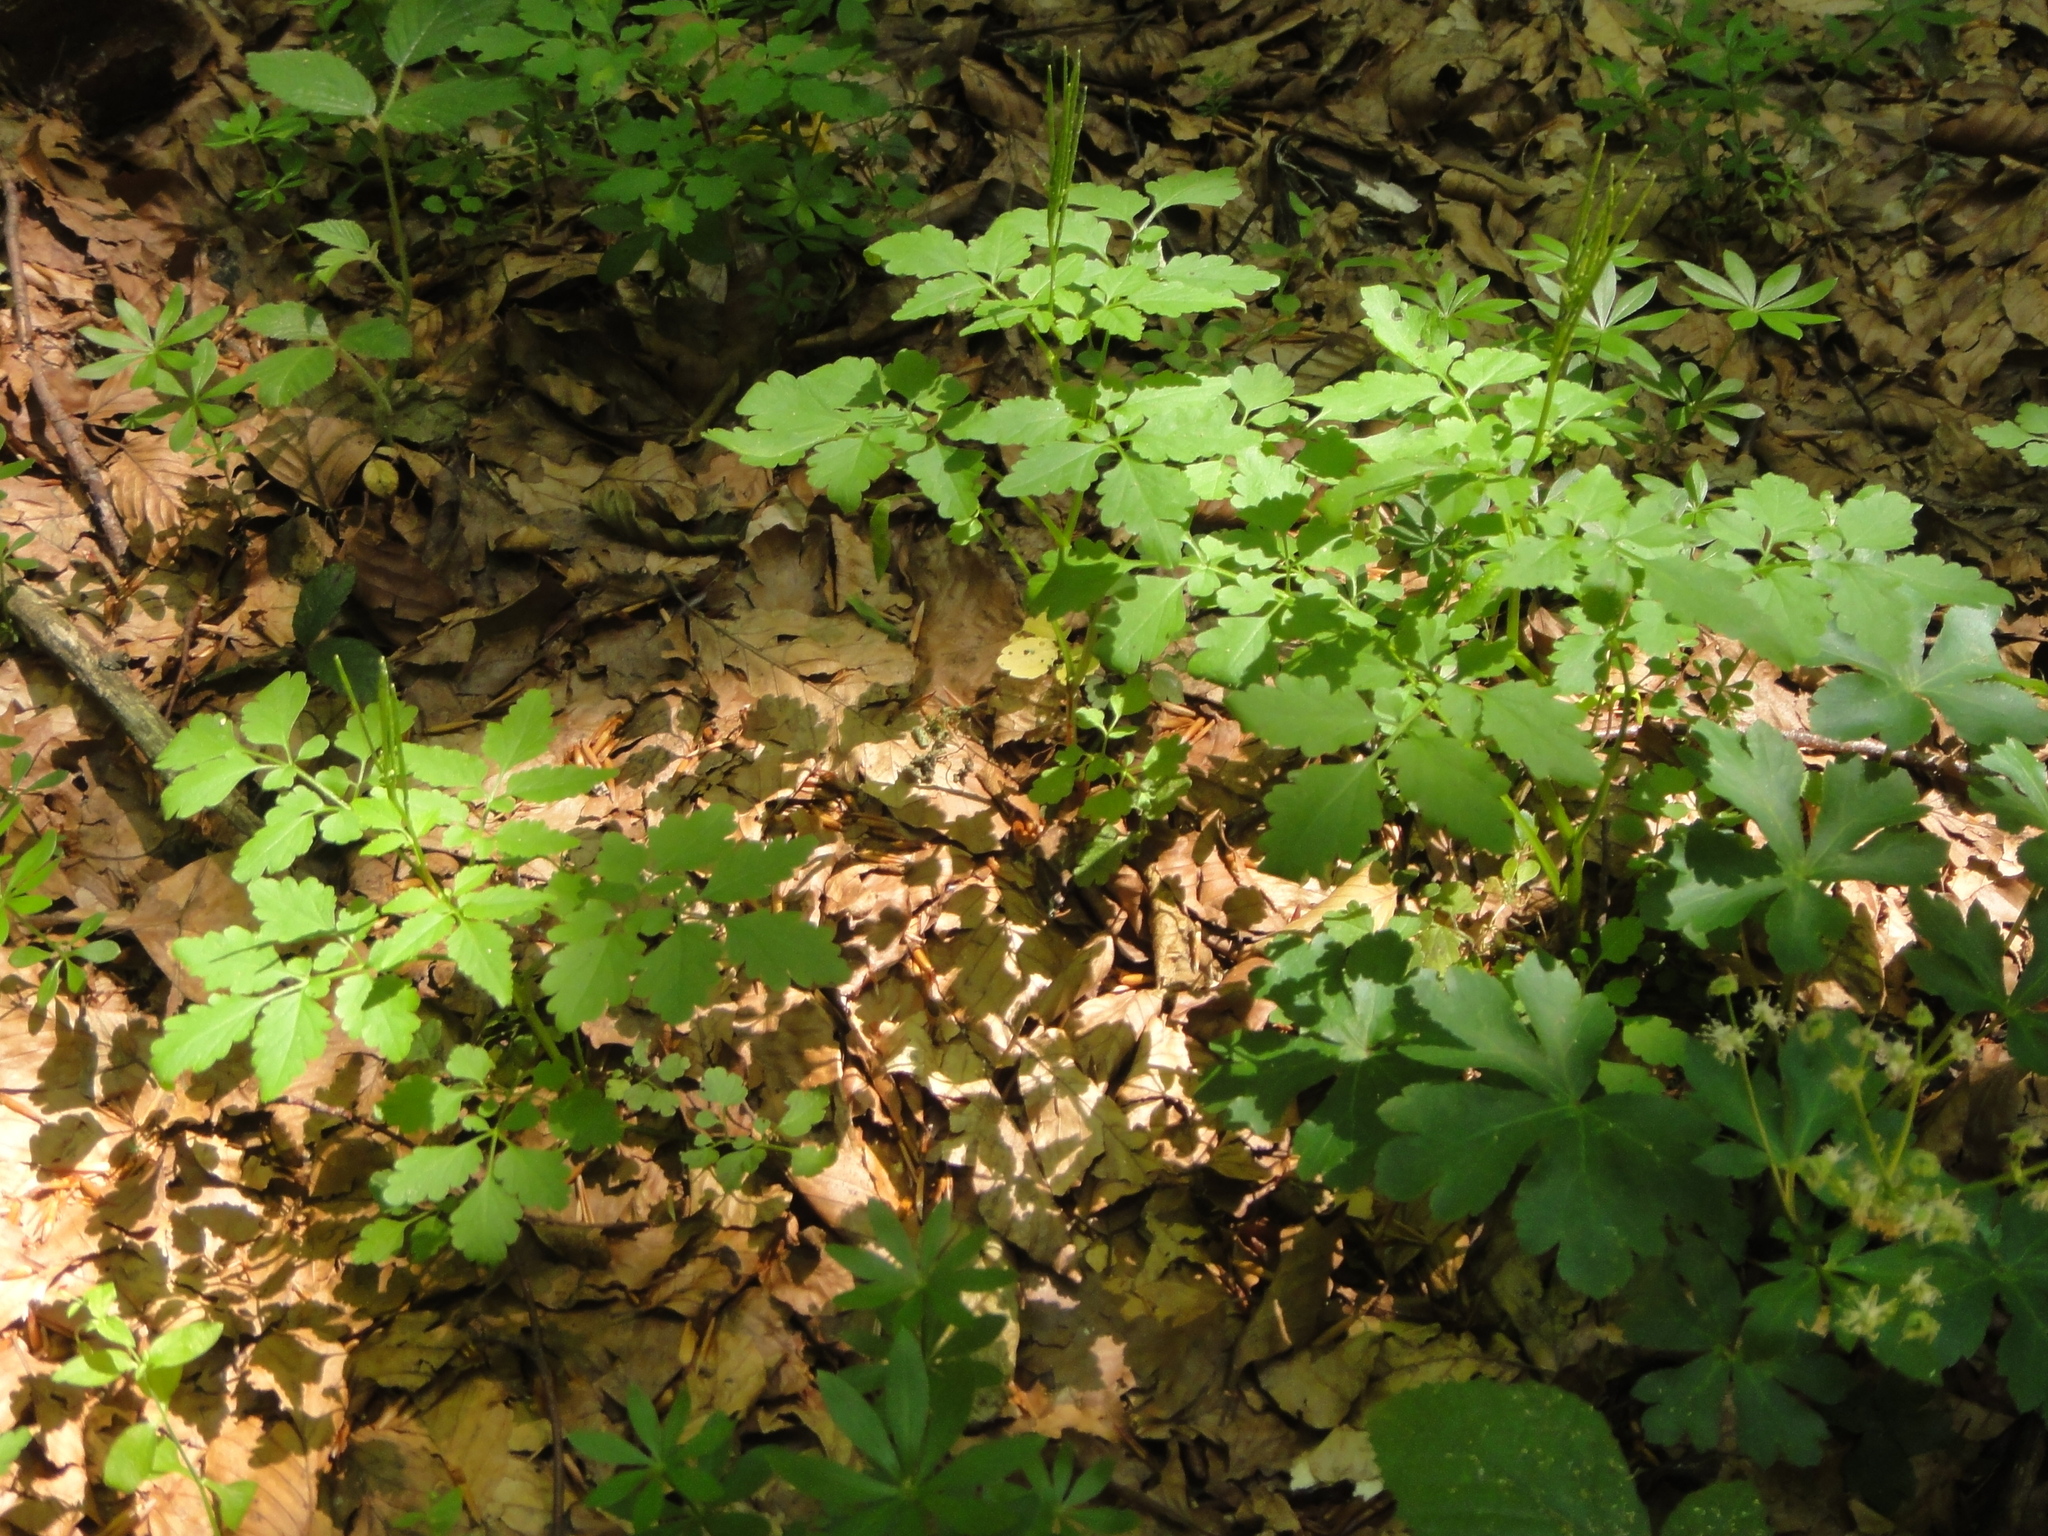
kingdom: Plantae
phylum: Tracheophyta
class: Magnoliopsida
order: Brassicales
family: Brassicaceae
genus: Cardamine
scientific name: Cardamine chelidonia
